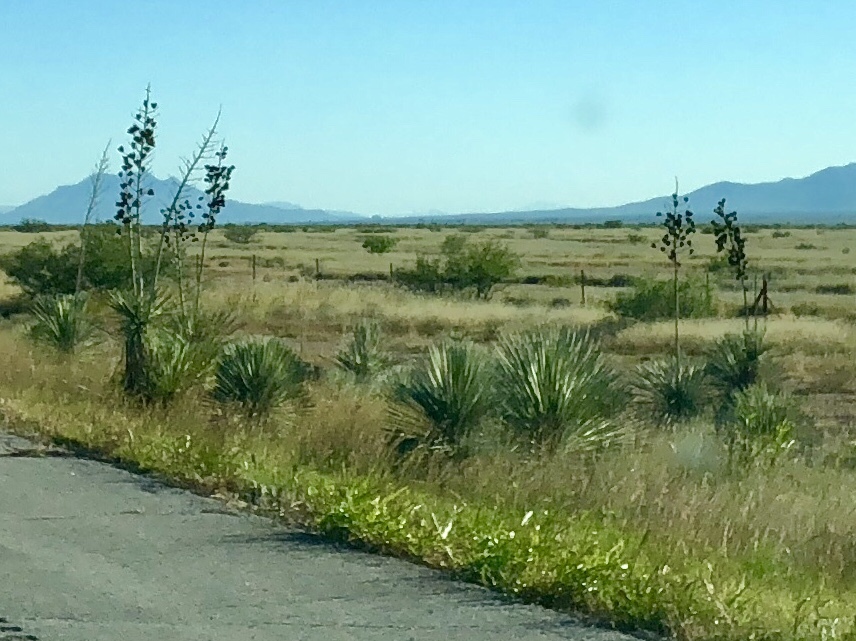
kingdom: Plantae
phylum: Tracheophyta
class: Liliopsida
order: Asparagales
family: Asparagaceae
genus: Yucca
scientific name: Yucca elata
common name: Palmella
